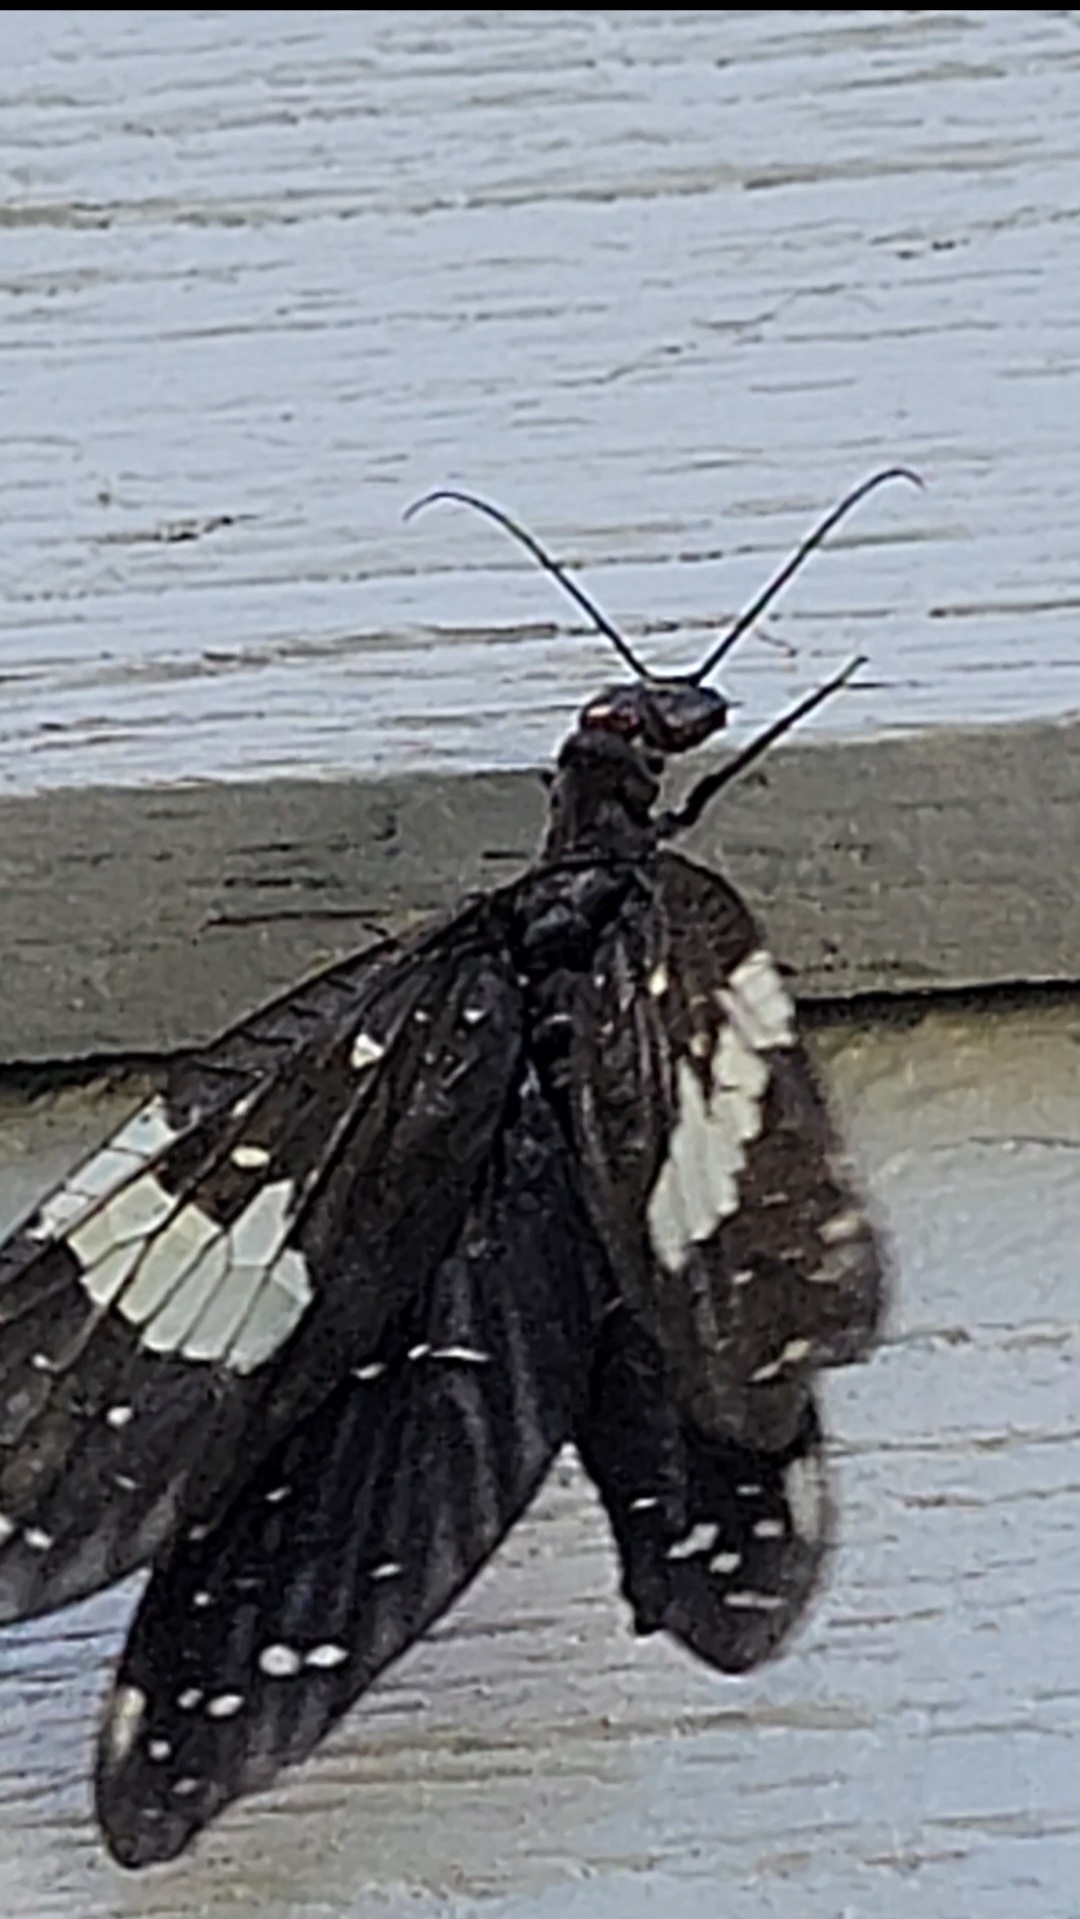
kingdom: Animalia
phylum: Arthropoda
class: Insecta
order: Megaloptera
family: Corydalidae
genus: Nigronia
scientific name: Nigronia serricornis
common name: Serrate dark fishfly
